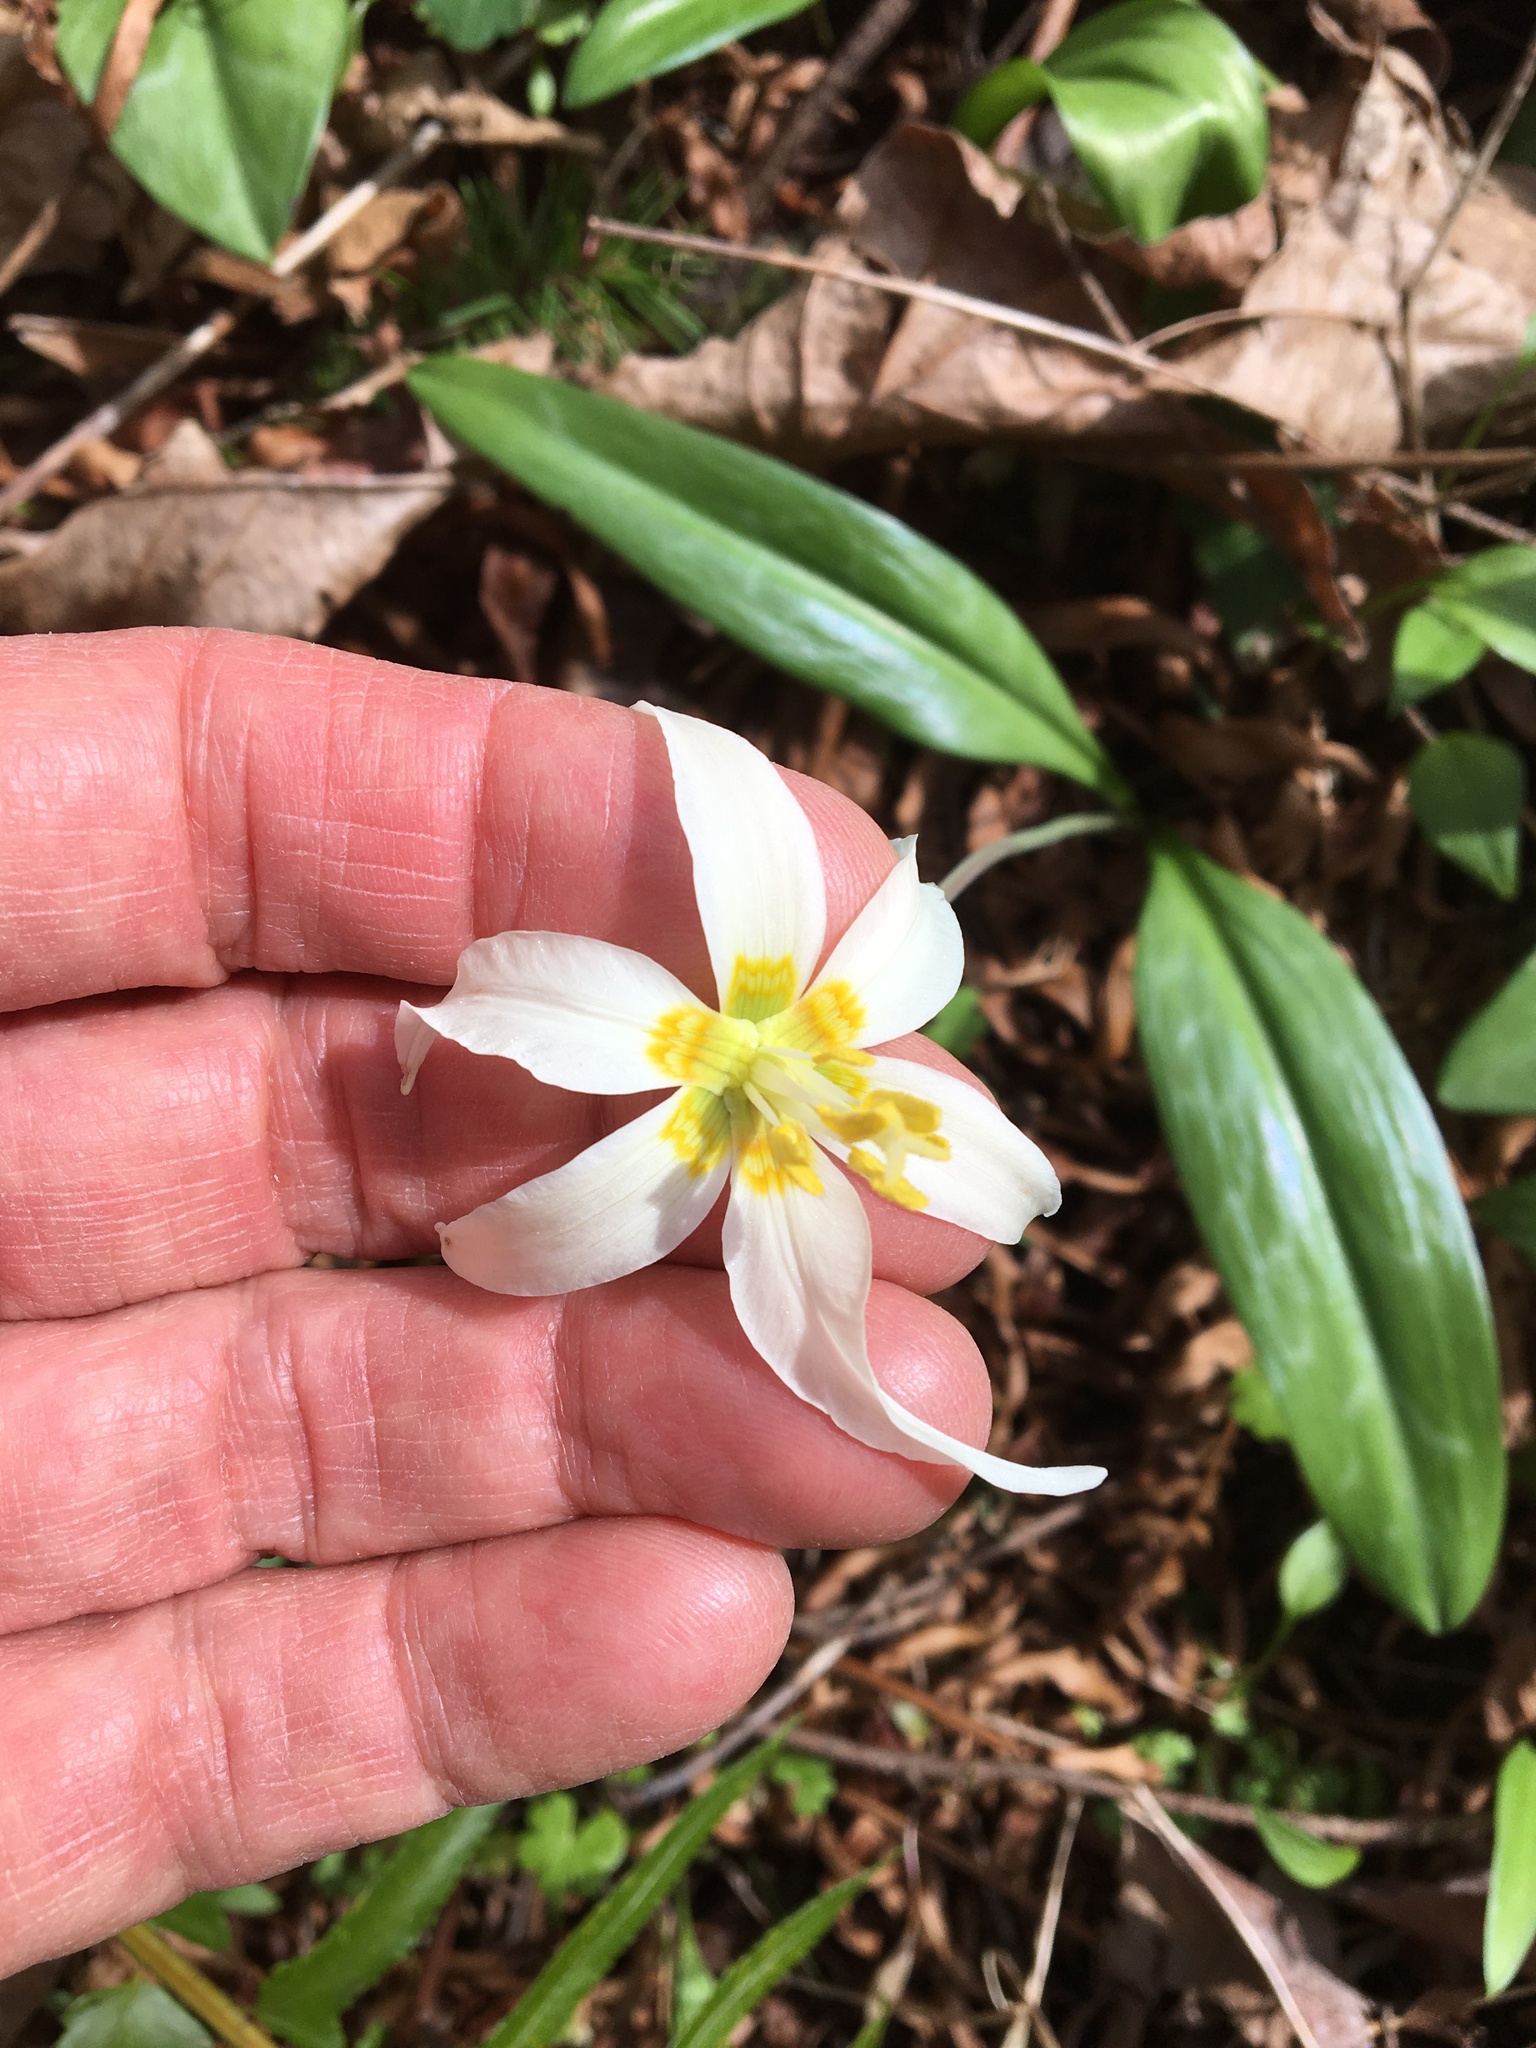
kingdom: Plantae
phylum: Tracheophyta
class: Liliopsida
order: Liliales
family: Liliaceae
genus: Erythronium
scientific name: Erythronium oregonum
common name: Giant adder's-tongue
